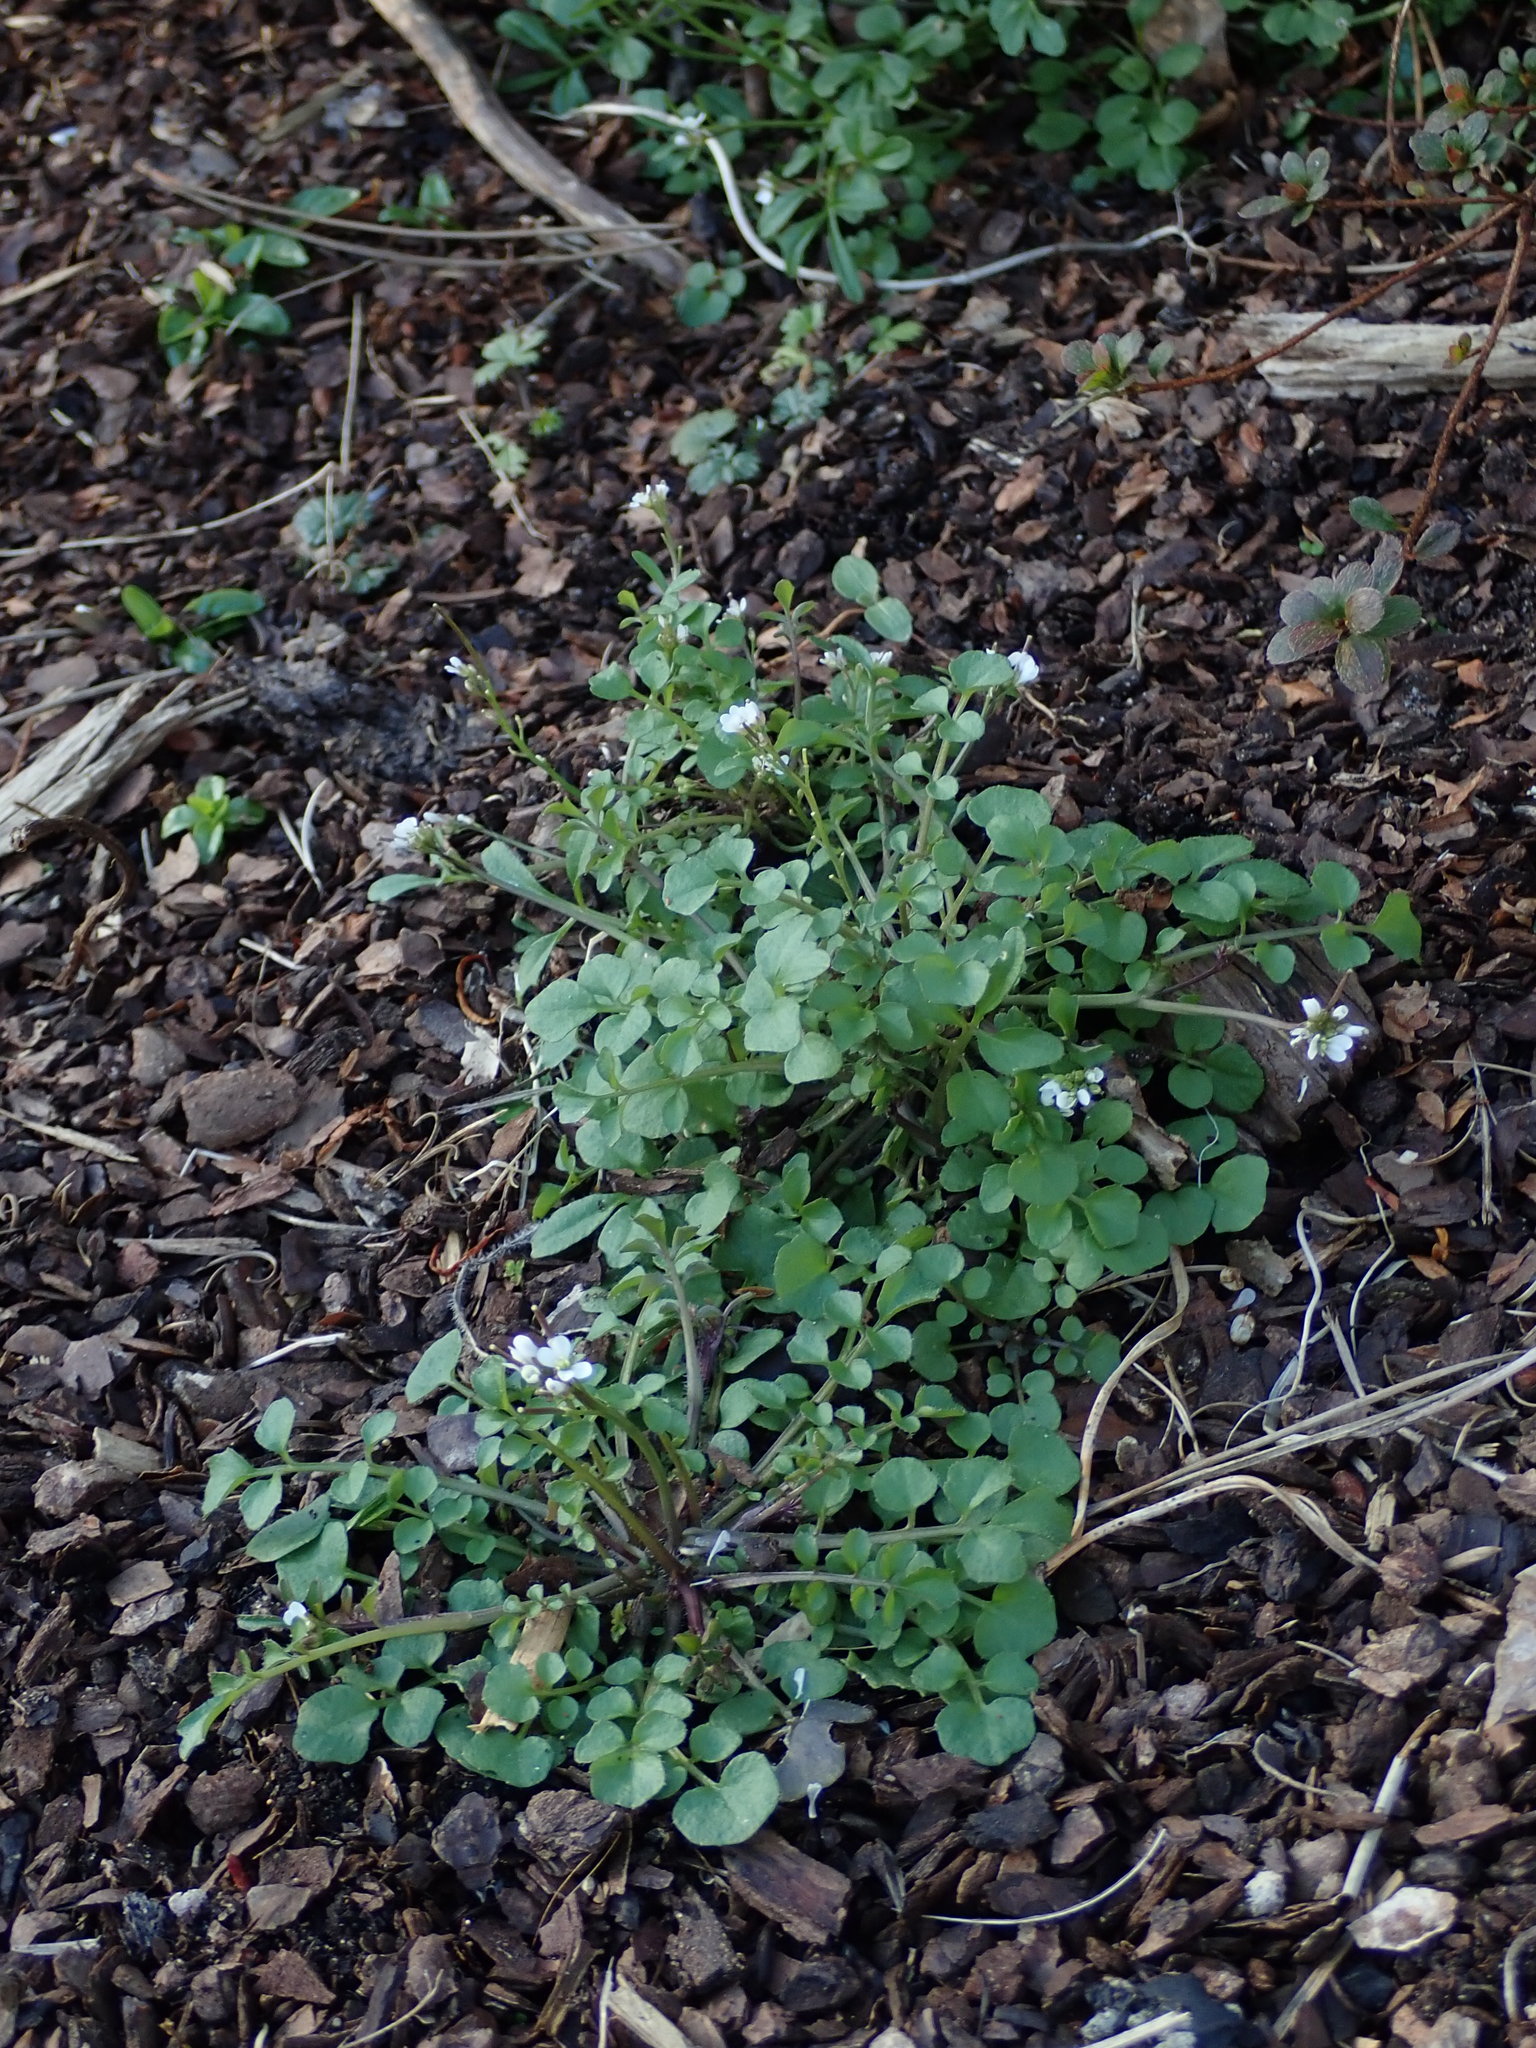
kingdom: Plantae
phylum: Tracheophyta
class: Magnoliopsida
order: Brassicales
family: Brassicaceae
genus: Cardamine
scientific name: Cardamine hirsuta
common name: Hairy bittercress
